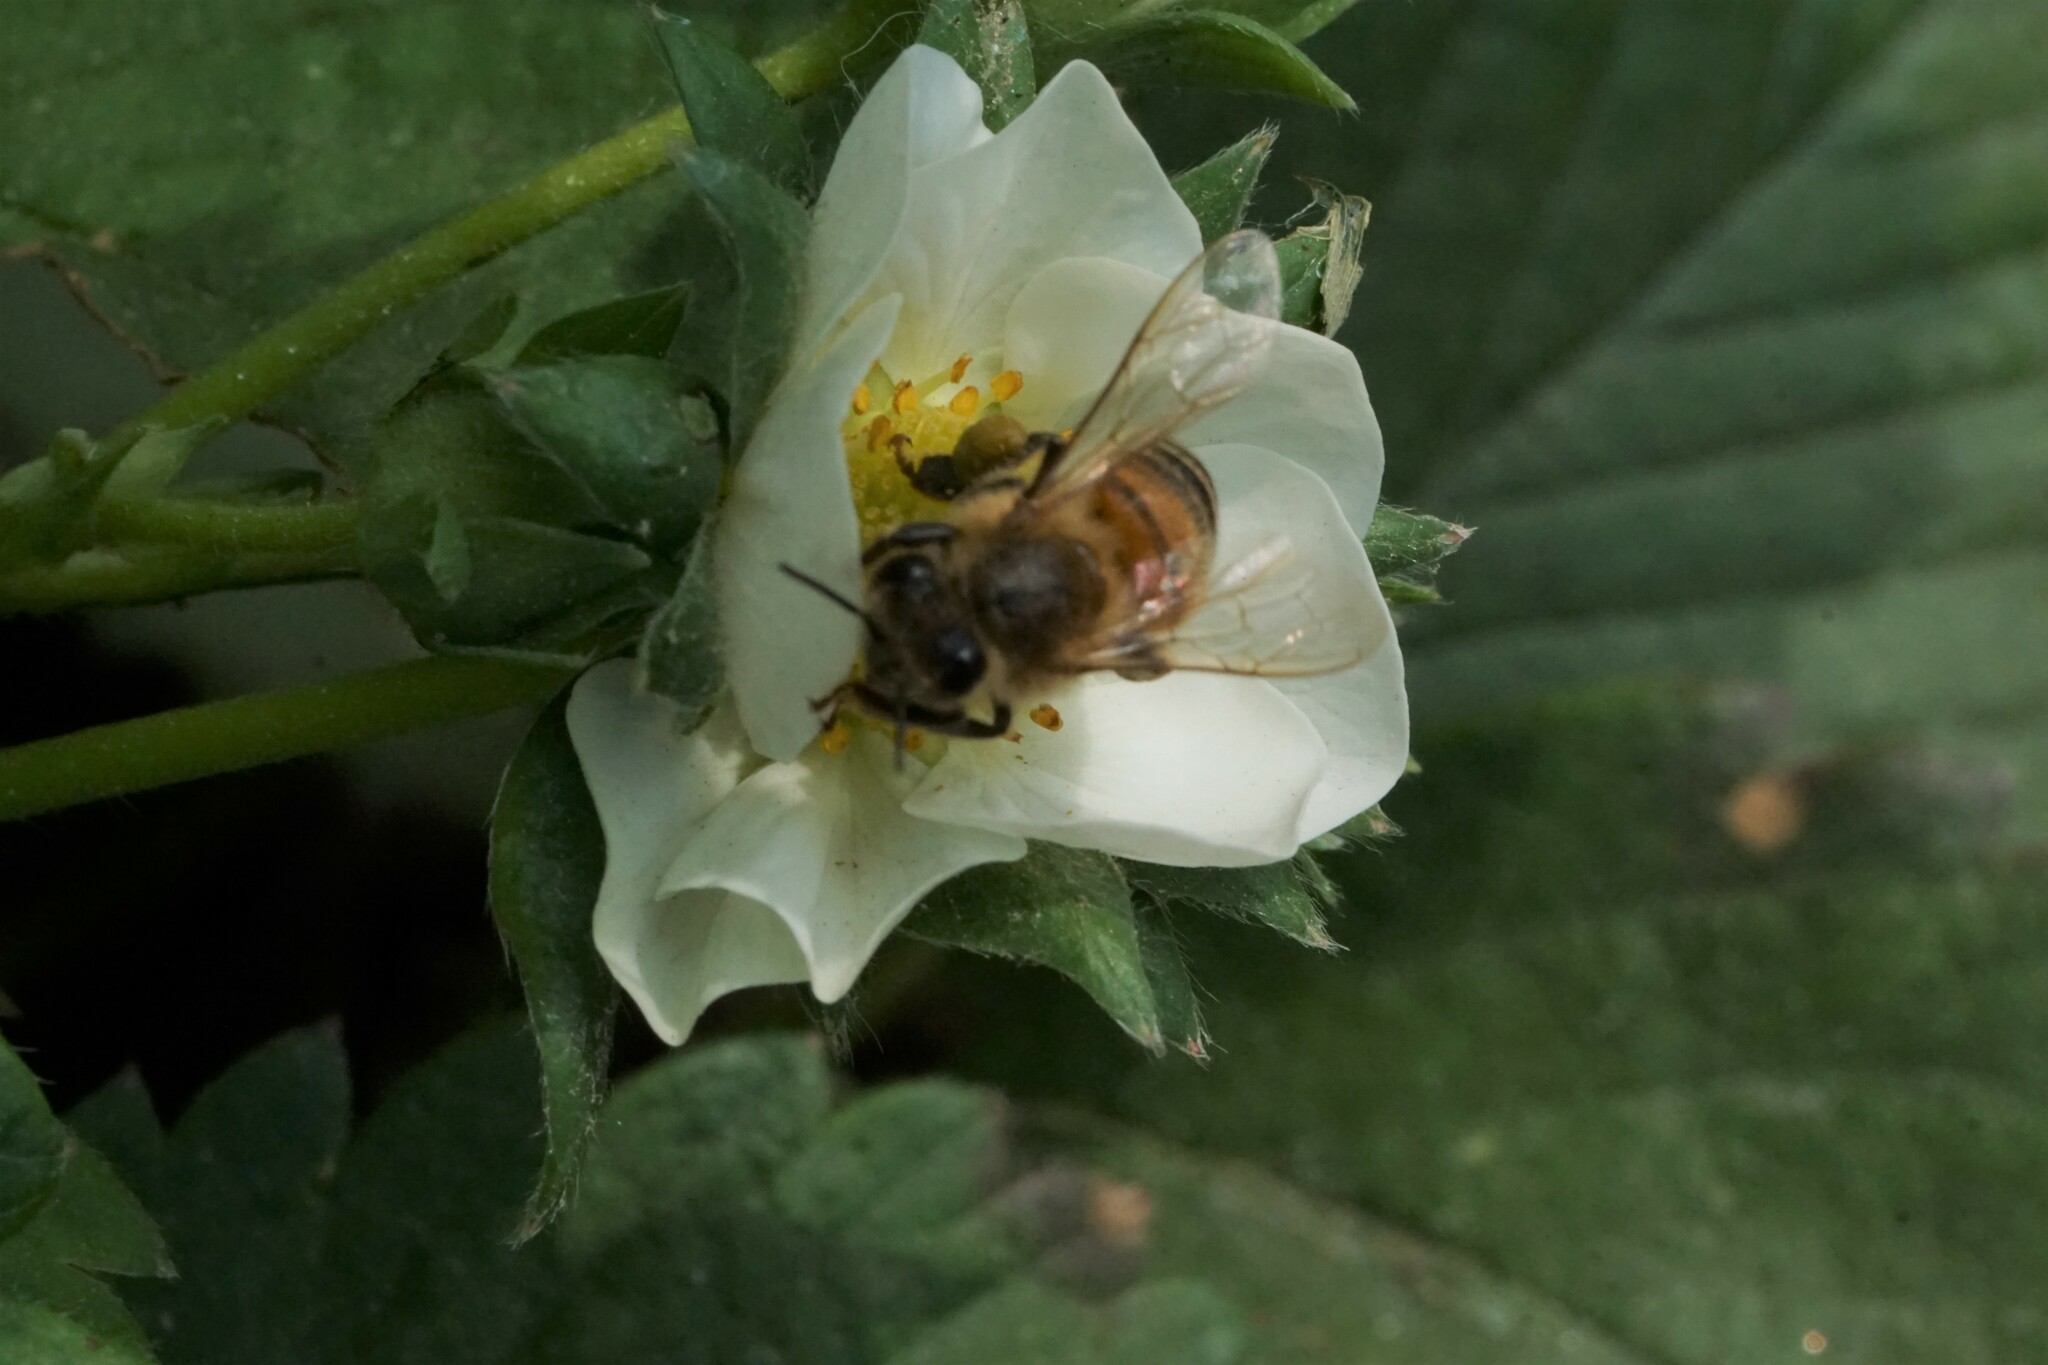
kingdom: Animalia
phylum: Arthropoda
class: Insecta
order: Hymenoptera
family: Apidae
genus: Apis
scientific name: Apis mellifera
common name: Honey bee
